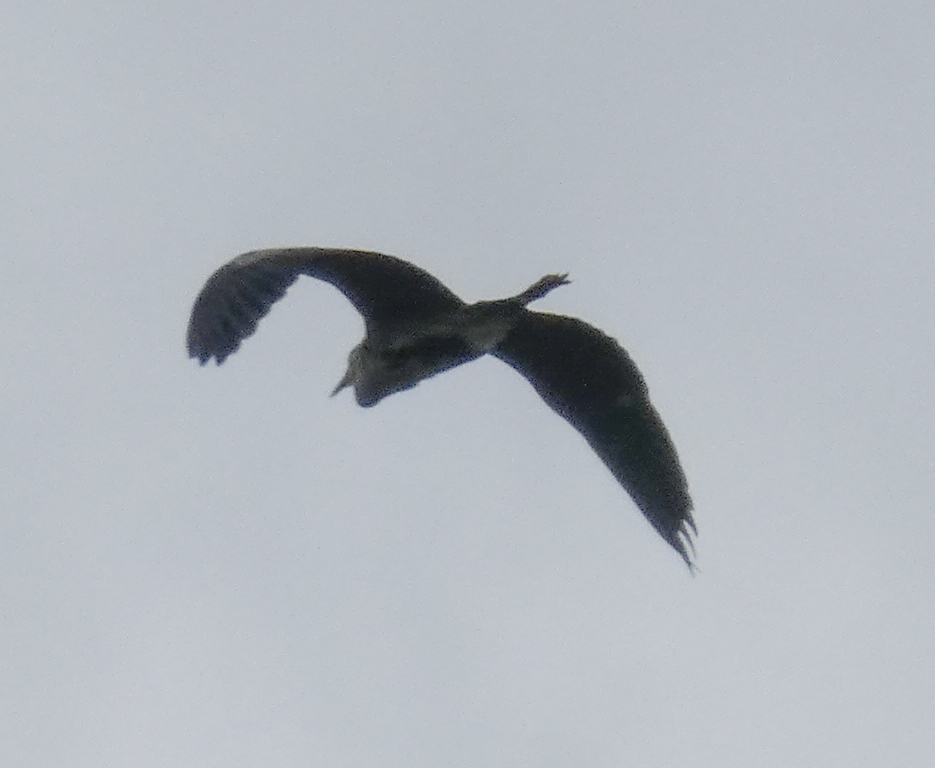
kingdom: Animalia
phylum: Chordata
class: Aves
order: Pelecaniformes
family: Ardeidae
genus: Ardea
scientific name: Ardea cinerea
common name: Grey heron
